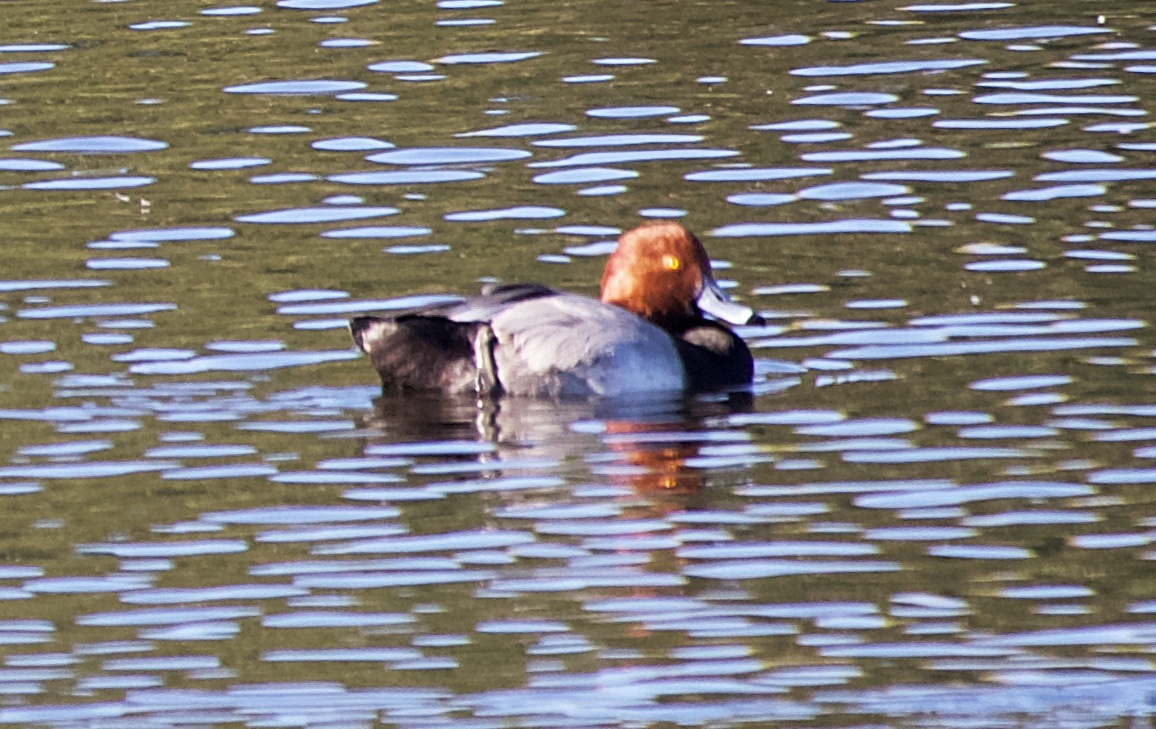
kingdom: Animalia
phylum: Chordata
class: Aves
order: Anseriformes
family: Anatidae
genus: Aythya
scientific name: Aythya americana
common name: Redhead
